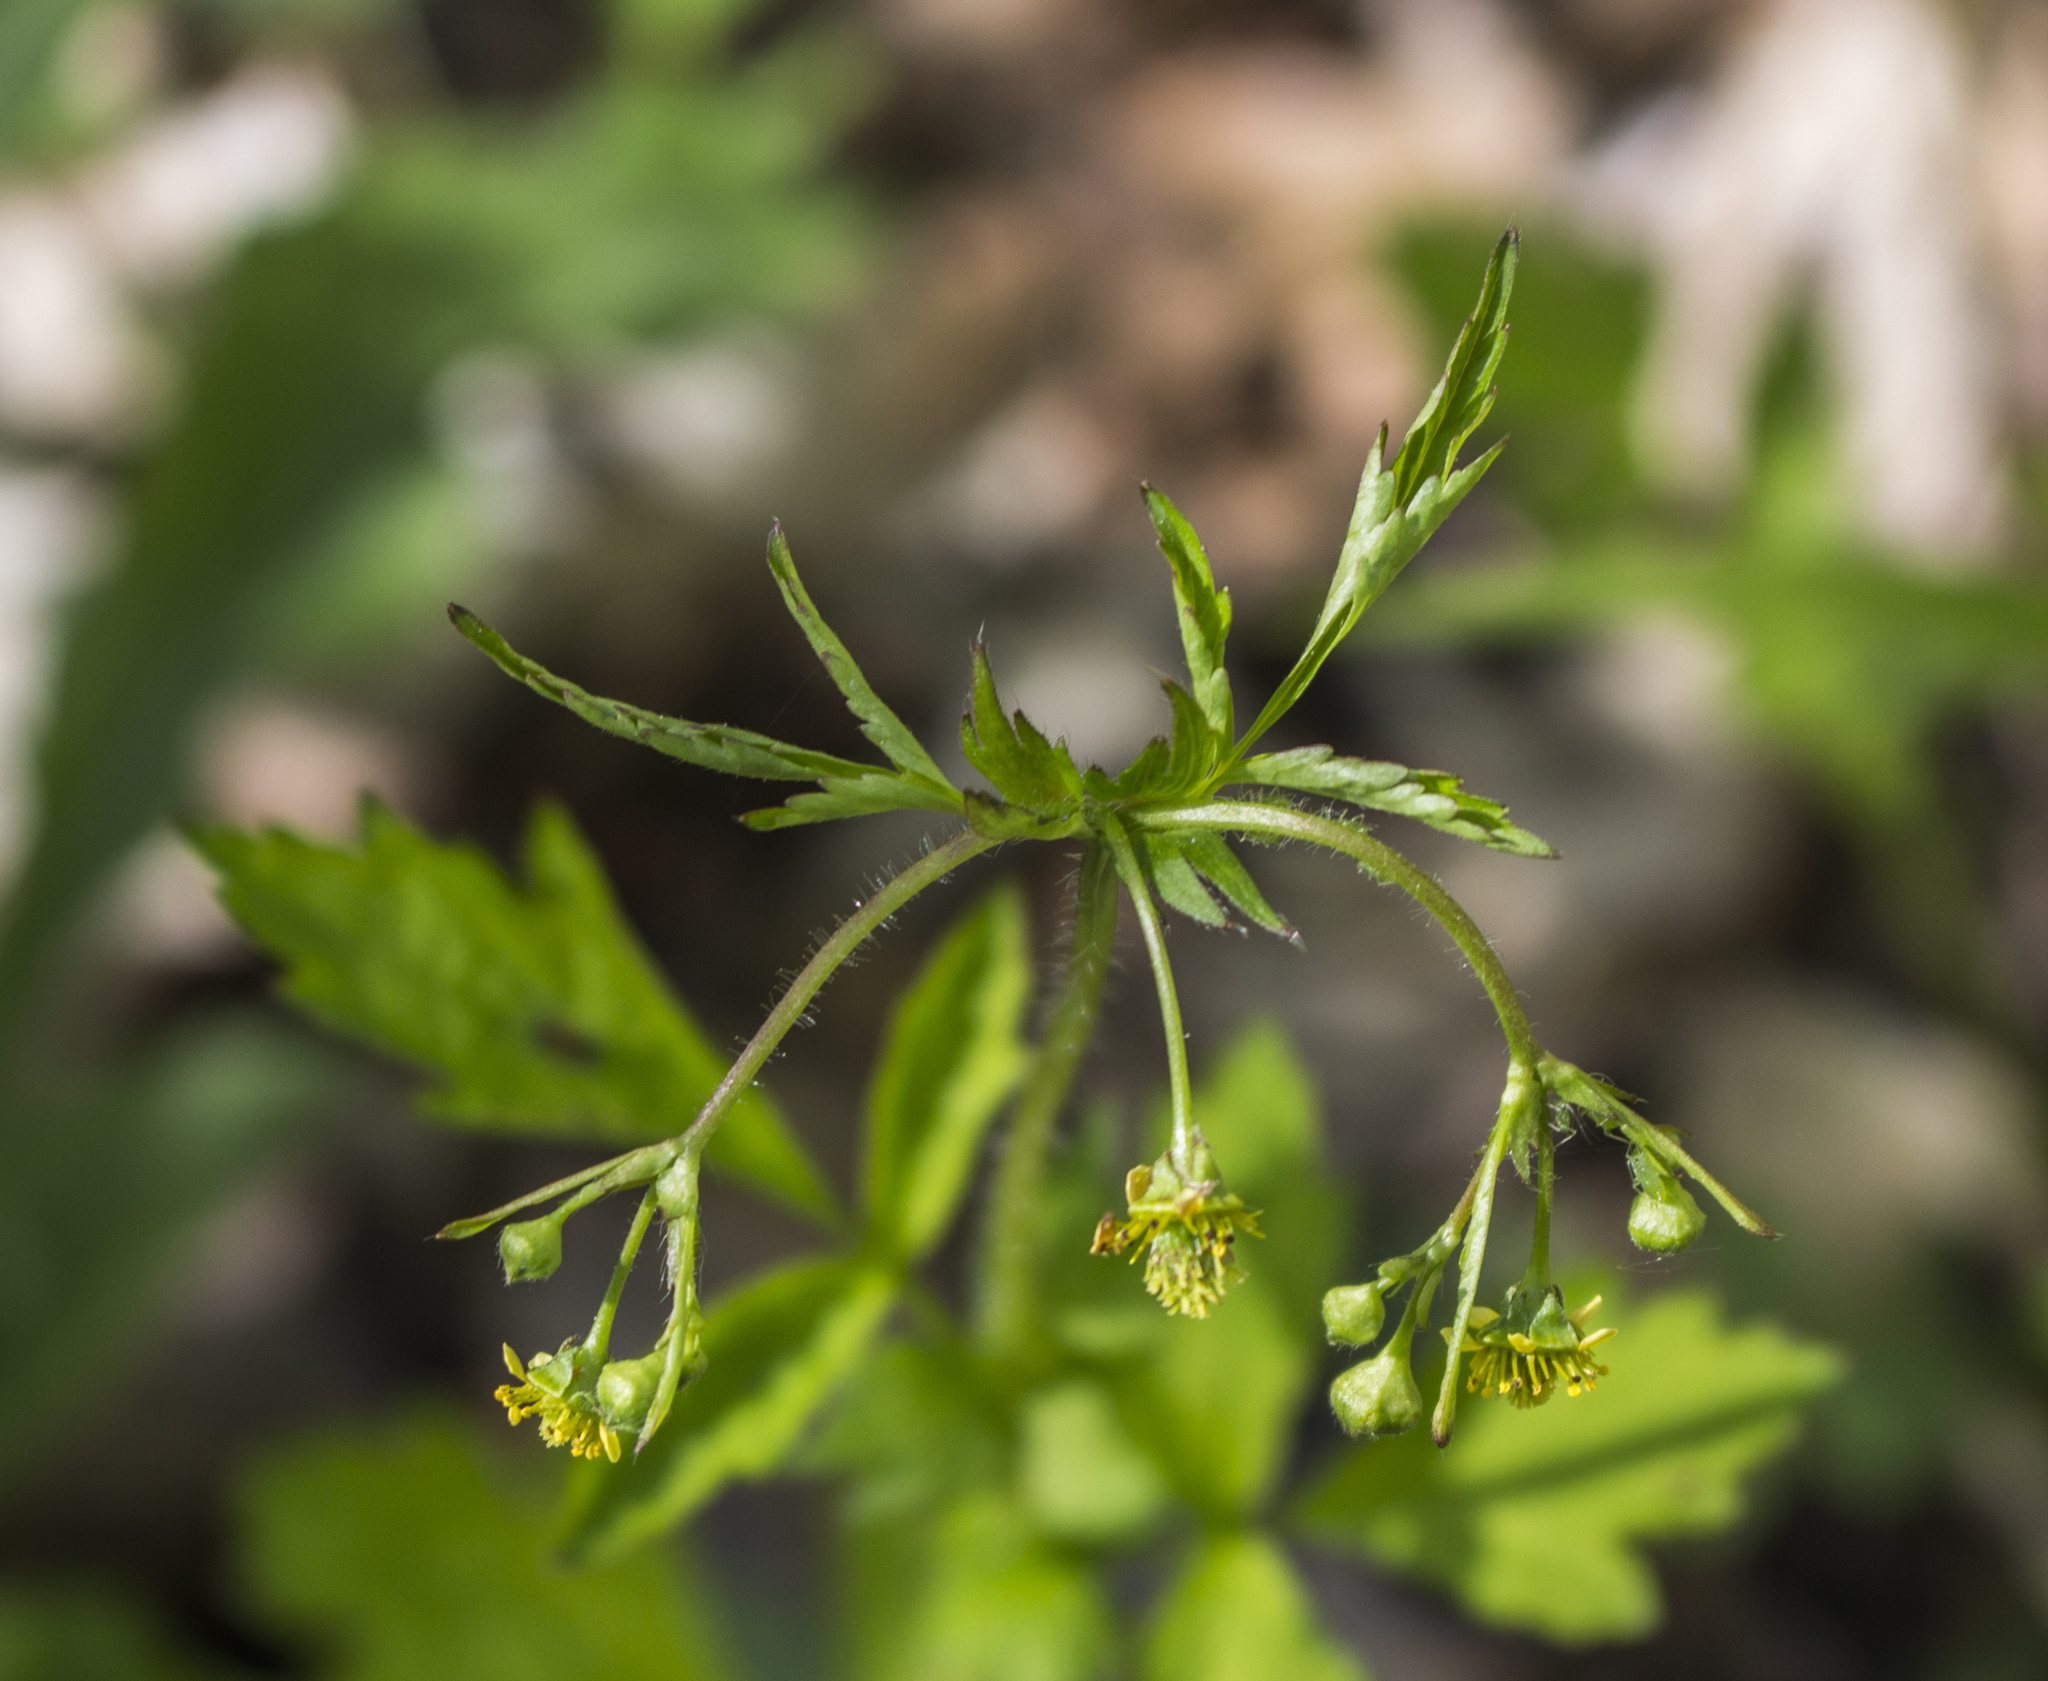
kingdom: Plantae
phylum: Tracheophyta
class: Magnoliopsida
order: Rosales
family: Rosaceae
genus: Geum
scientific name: Geum vernum
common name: Spring avens
